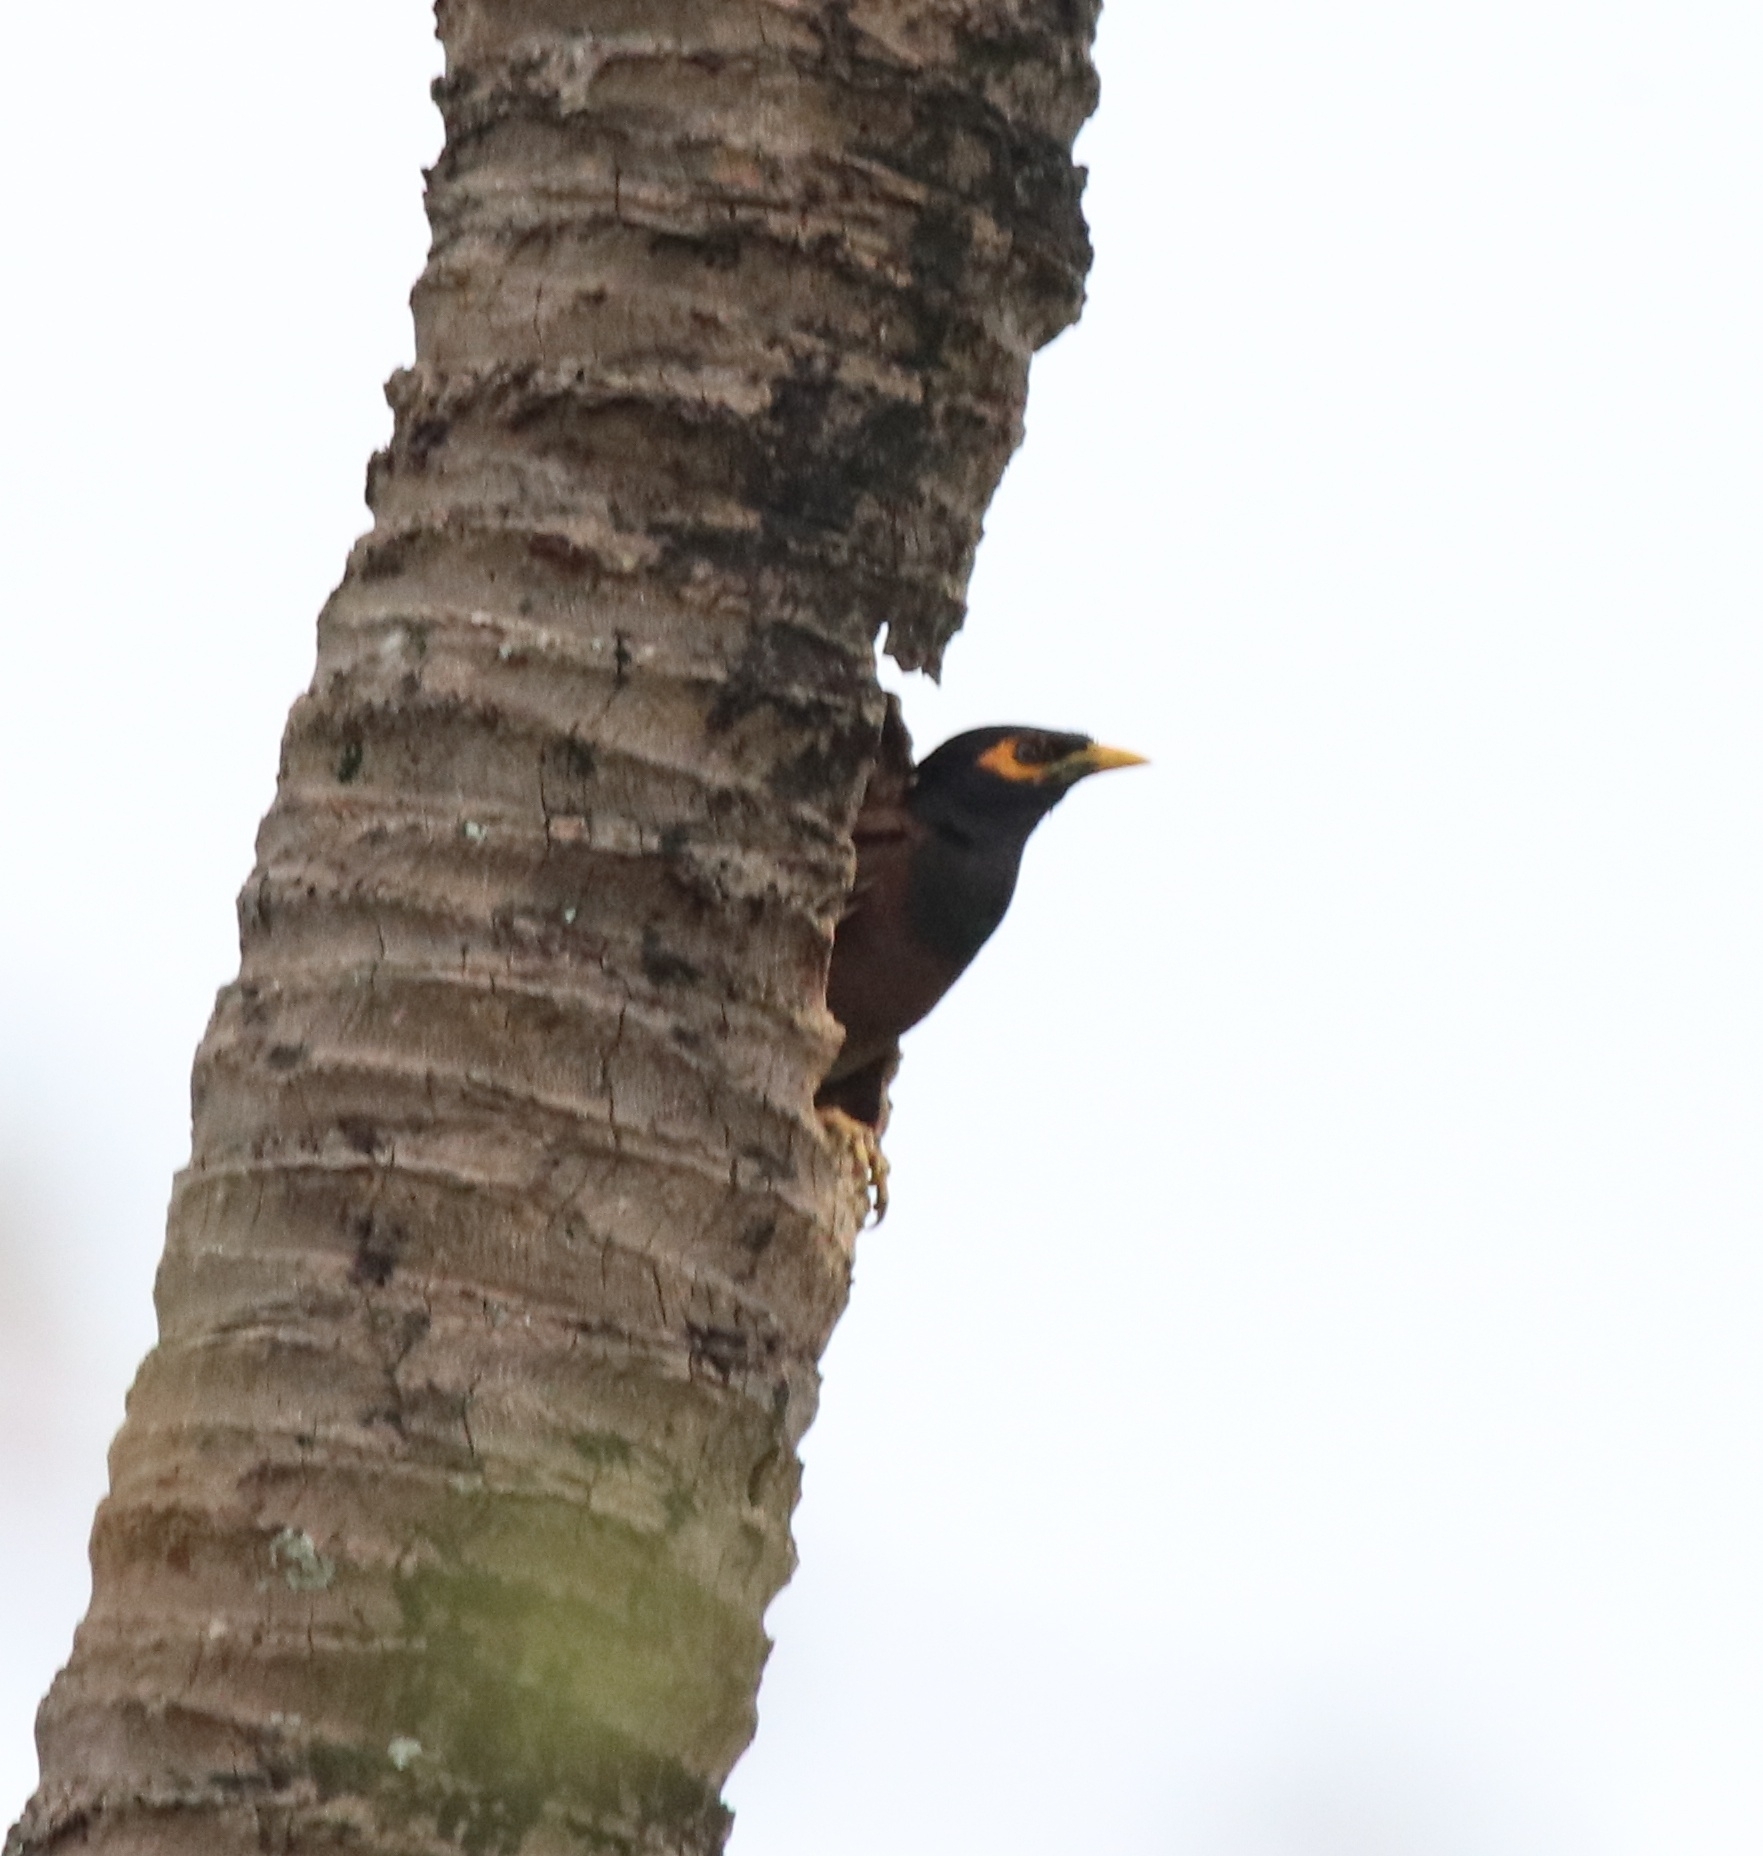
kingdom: Animalia
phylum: Chordata
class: Aves
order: Passeriformes
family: Sturnidae
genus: Acridotheres
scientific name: Acridotheres tristis
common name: Common myna
